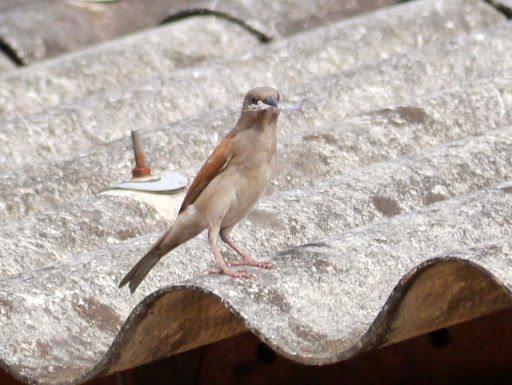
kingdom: Animalia
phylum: Chordata
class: Aves
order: Passeriformes
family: Passeridae
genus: Passer
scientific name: Passer griseus
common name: Northern grey-headed sparrow
